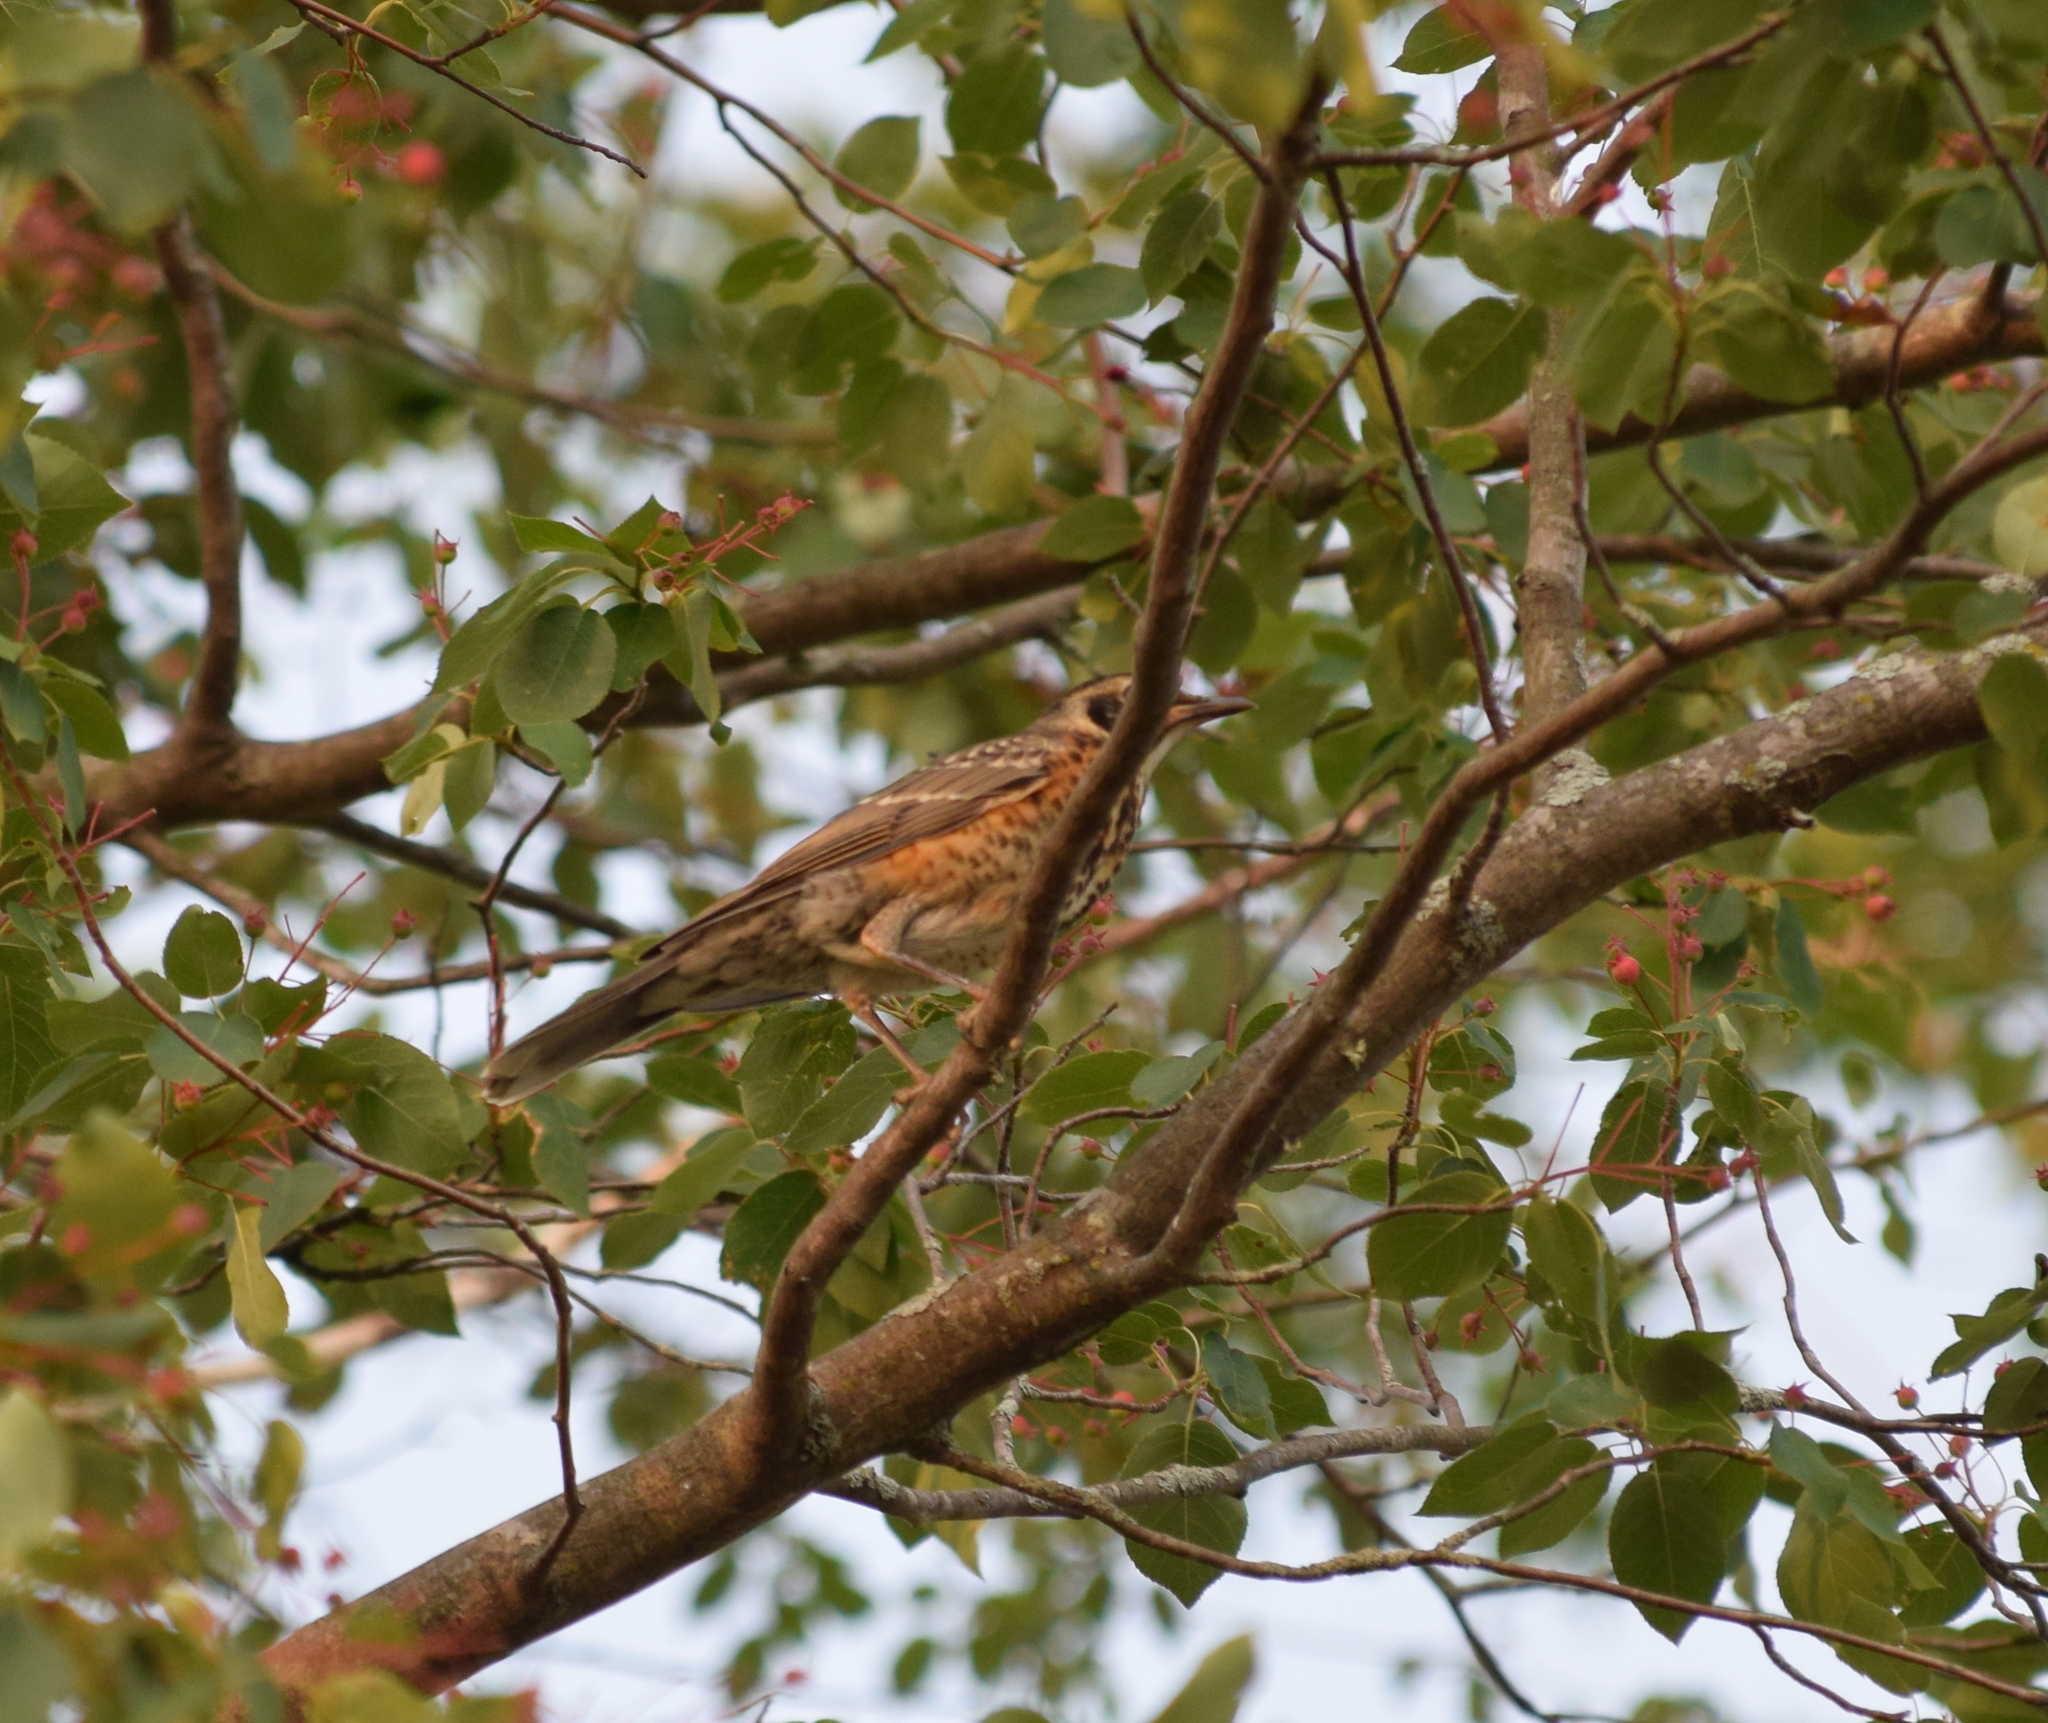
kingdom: Animalia
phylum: Chordata
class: Aves
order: Passeriformes
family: Turdidae
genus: Turdus
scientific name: Turdus migratorius
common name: American robin
